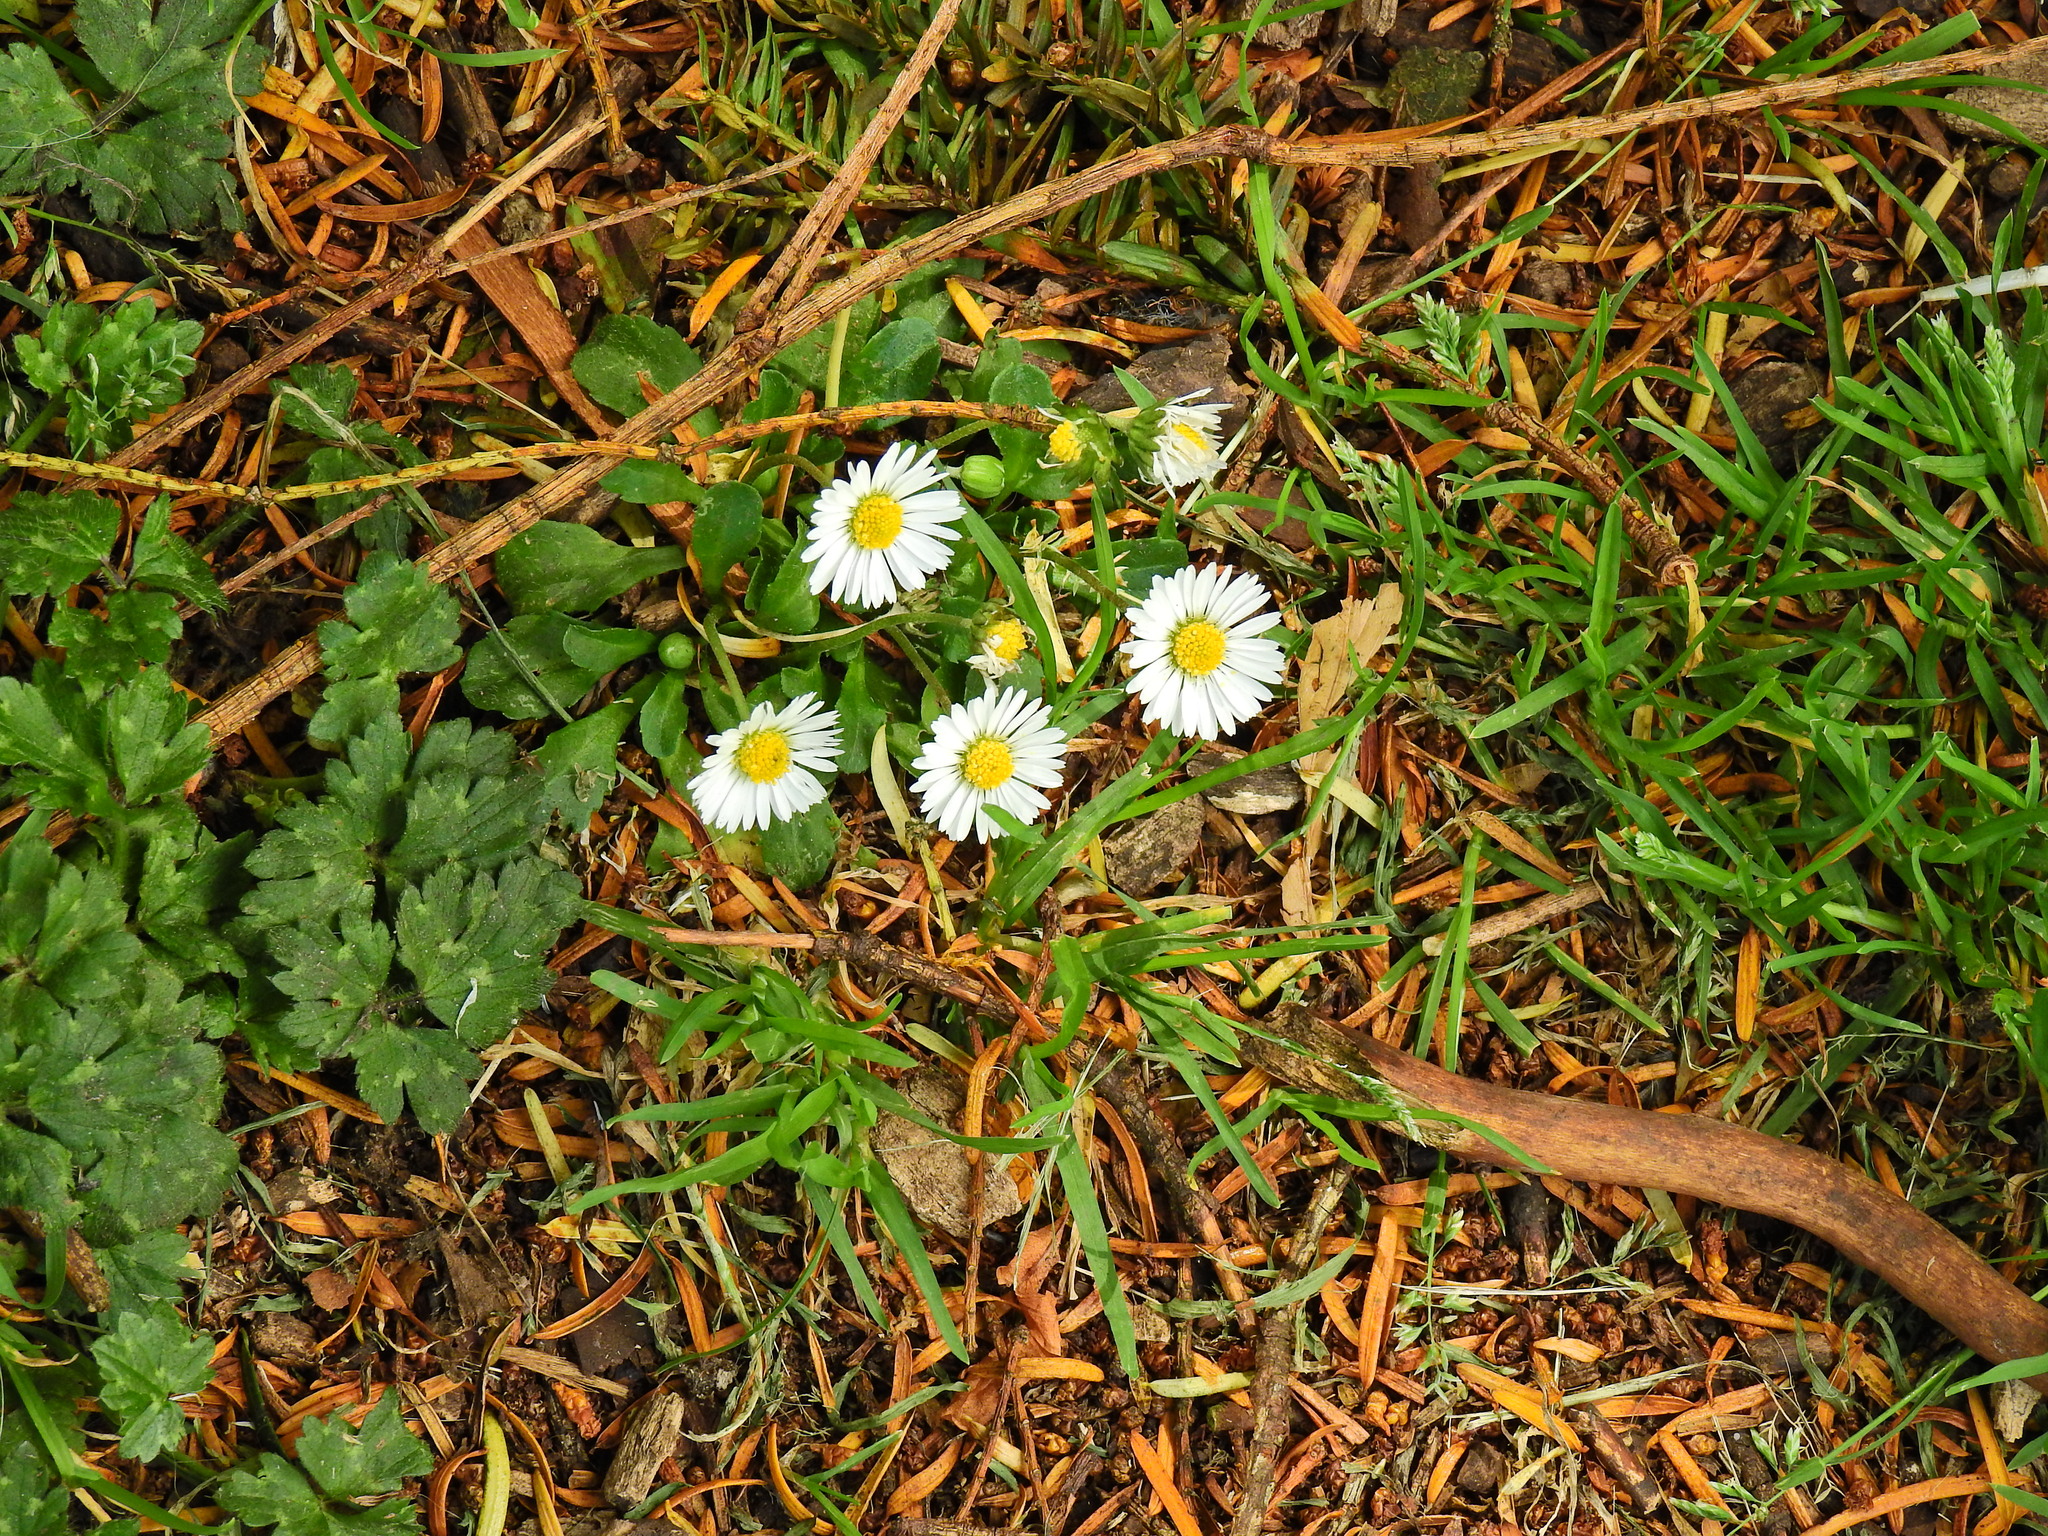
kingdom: Plantae
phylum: Tracheophyta
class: Magnoliopsida
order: Asterales
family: Asteraceae
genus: Bellis
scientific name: Bellis perennis
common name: Lawndaisy
